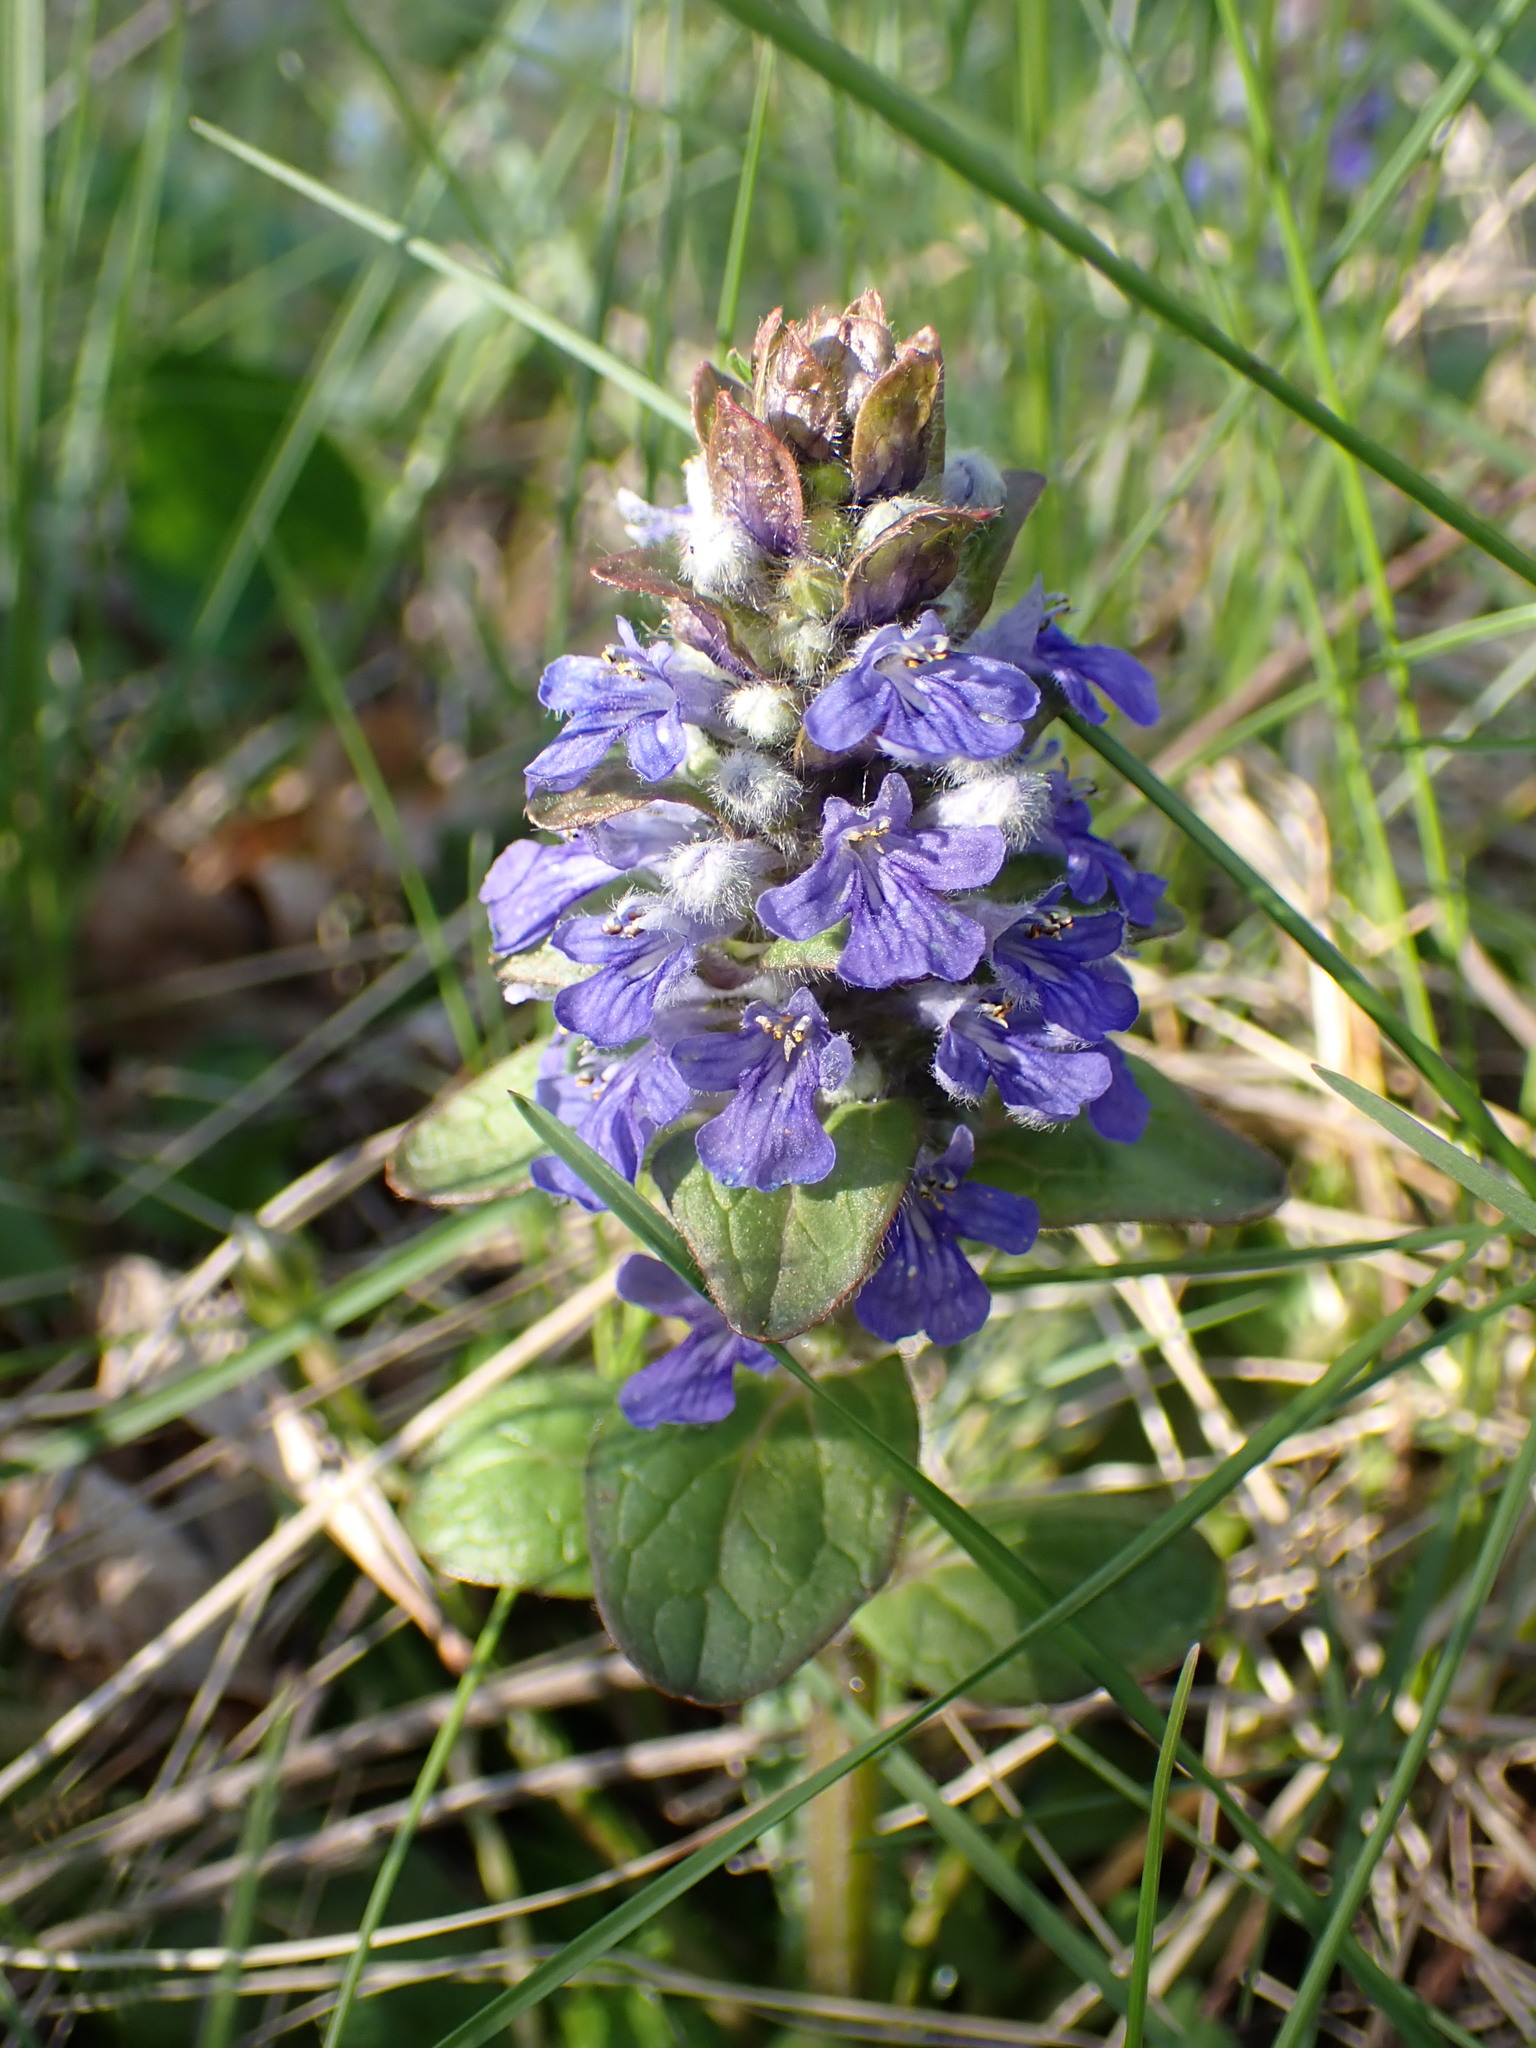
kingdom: Plantae
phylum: Tracheophyta
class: Magnoliopsida
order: Lamiales
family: Lamiaceae
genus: Ajuga
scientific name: Ajuga reptans
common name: Bugle
